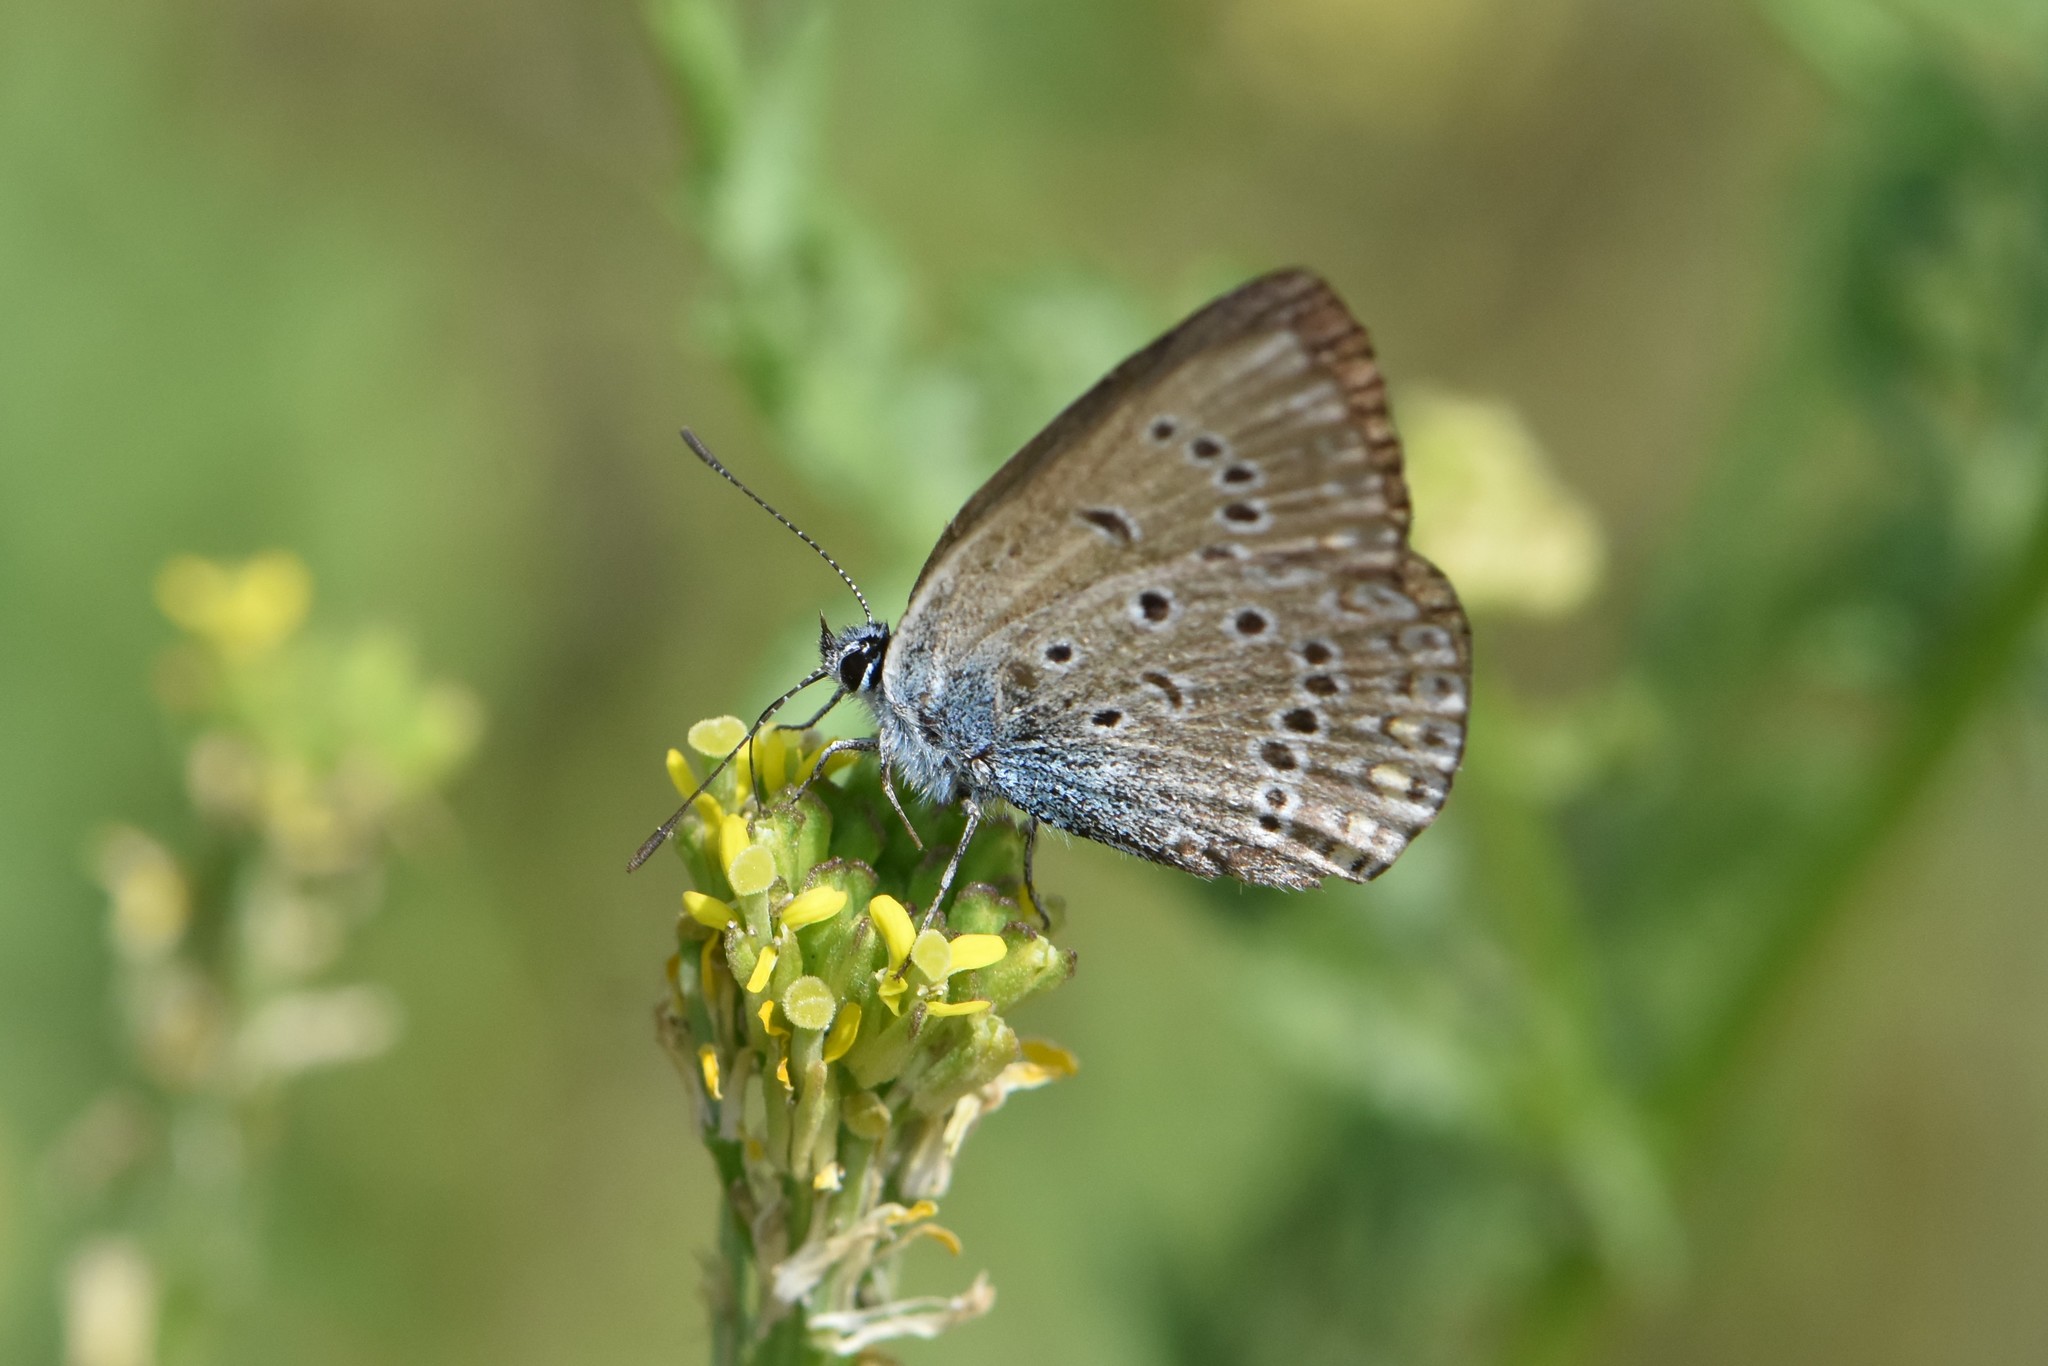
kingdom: Animalia
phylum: Arthropoda
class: Insecta
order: Lepidoptera
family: Lycaenidae
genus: Plebejus
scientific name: Plebejus amanda
